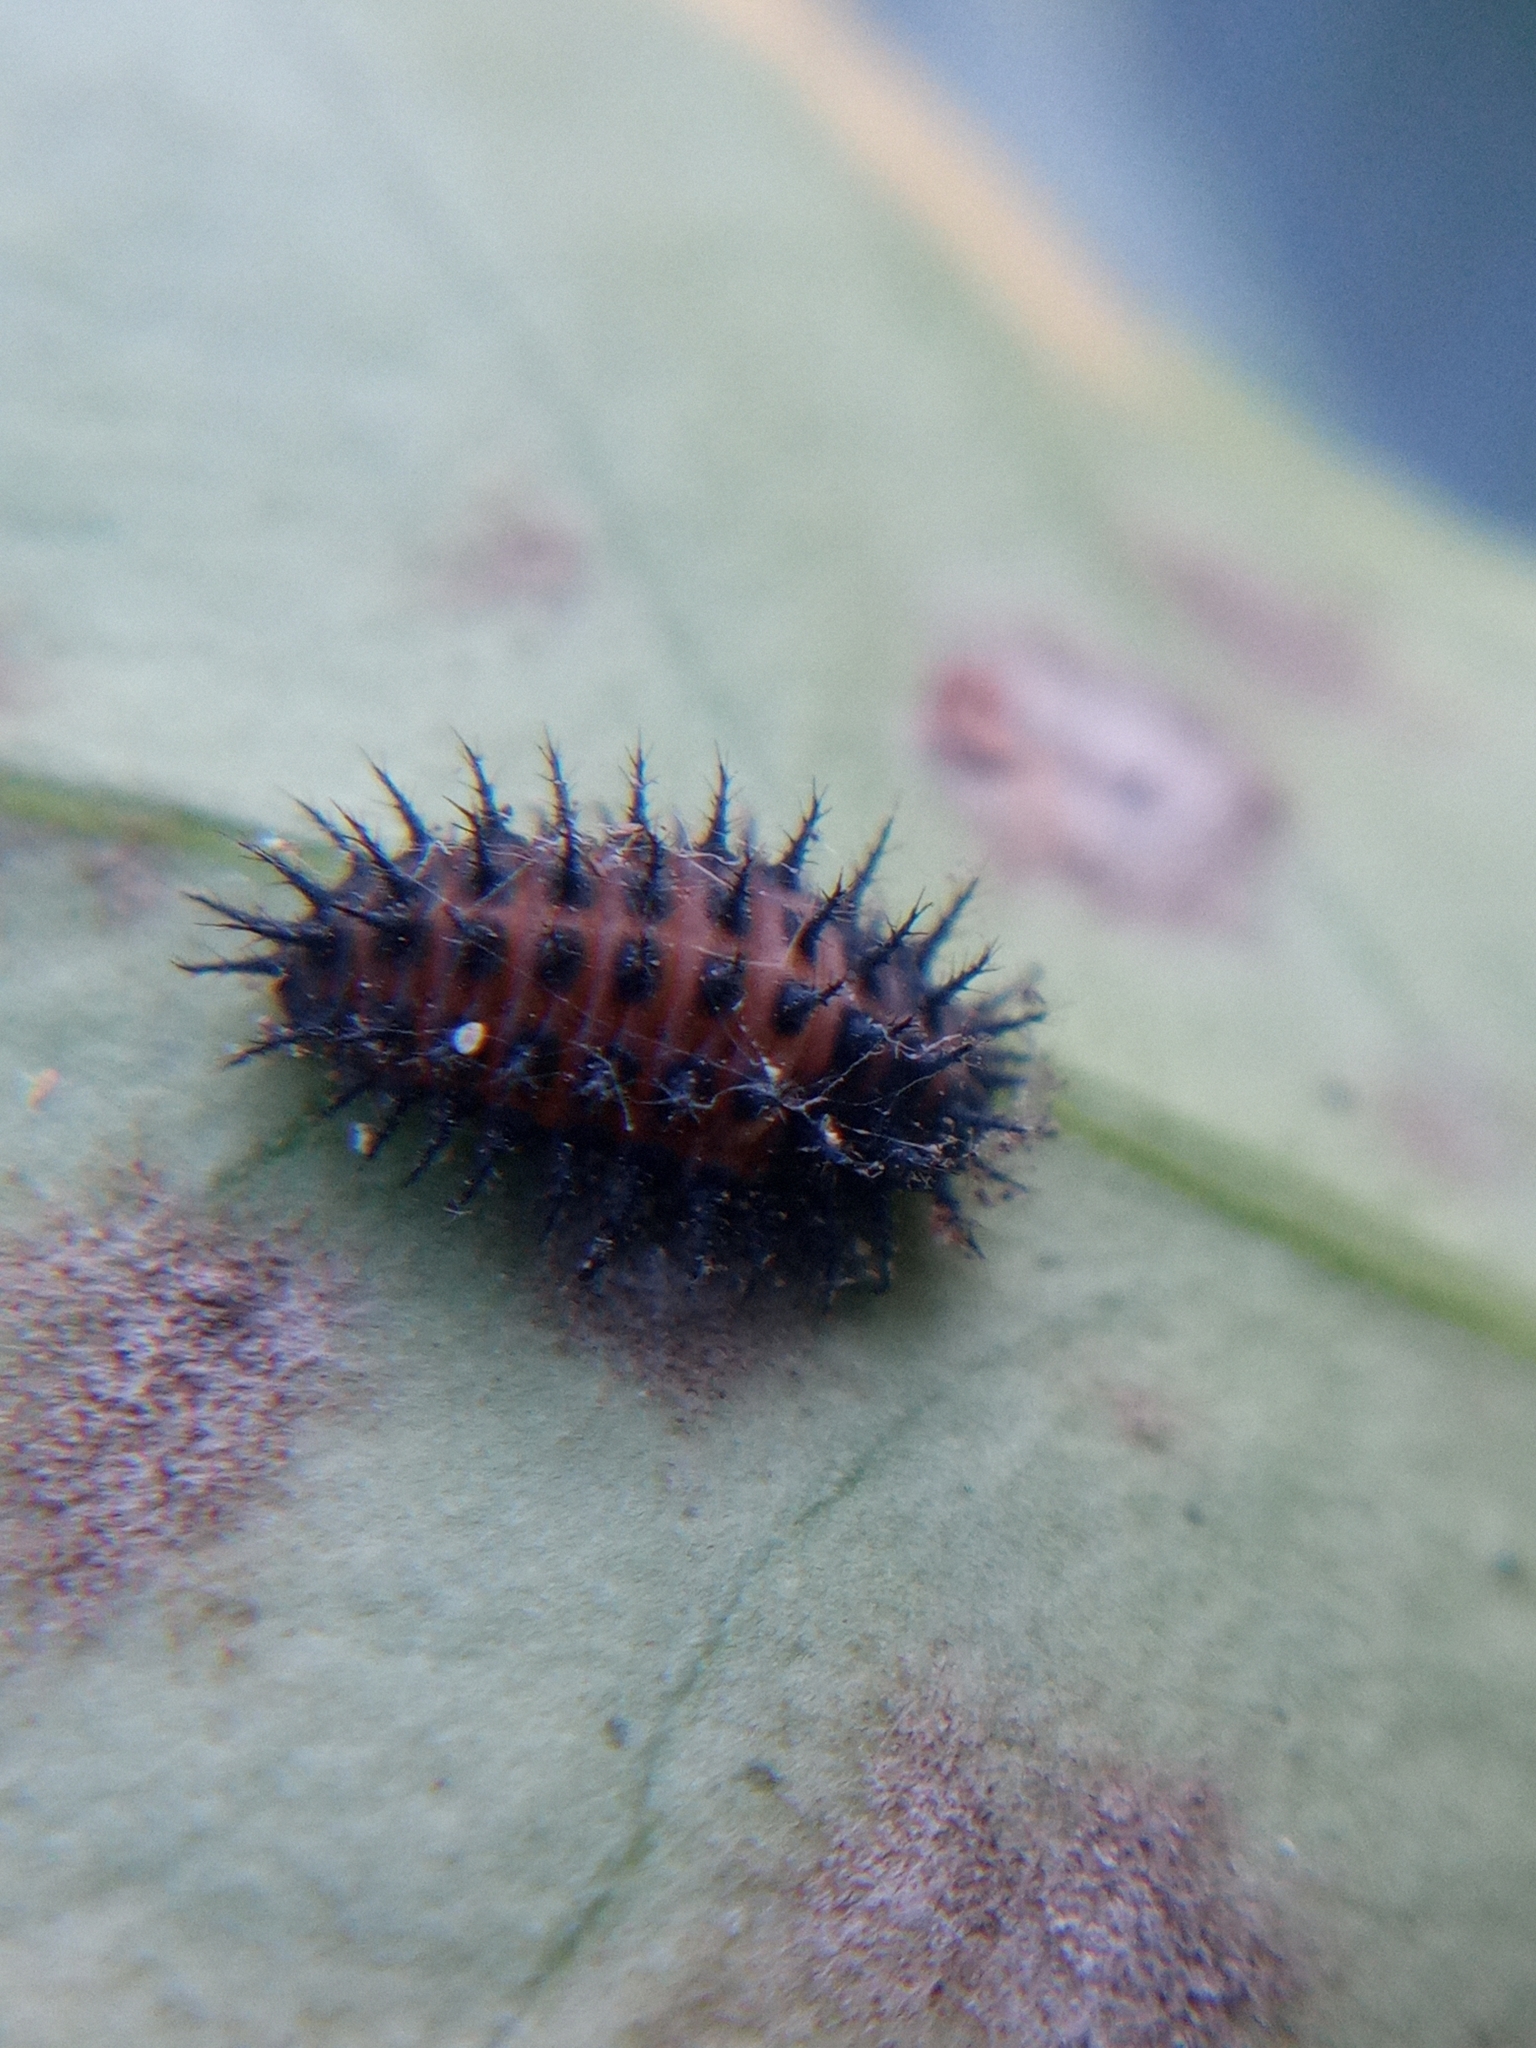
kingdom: Animalia
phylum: Arthropoda
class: Insecta
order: Coleoptera
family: Coccinellidae
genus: Chilocorus
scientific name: Chilocorus renipustulatus
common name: Kidney-spot ladybird
